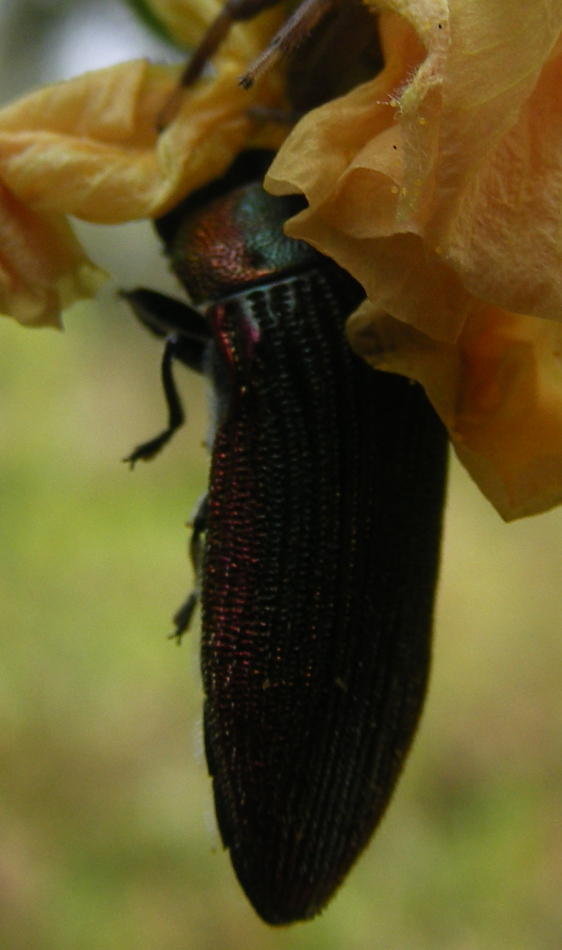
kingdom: Animalia
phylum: Arthropoda
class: Insecta
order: Coleoptera
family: Buprestidae
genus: Acmaeodera
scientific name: Acmaeodera viridaenea
